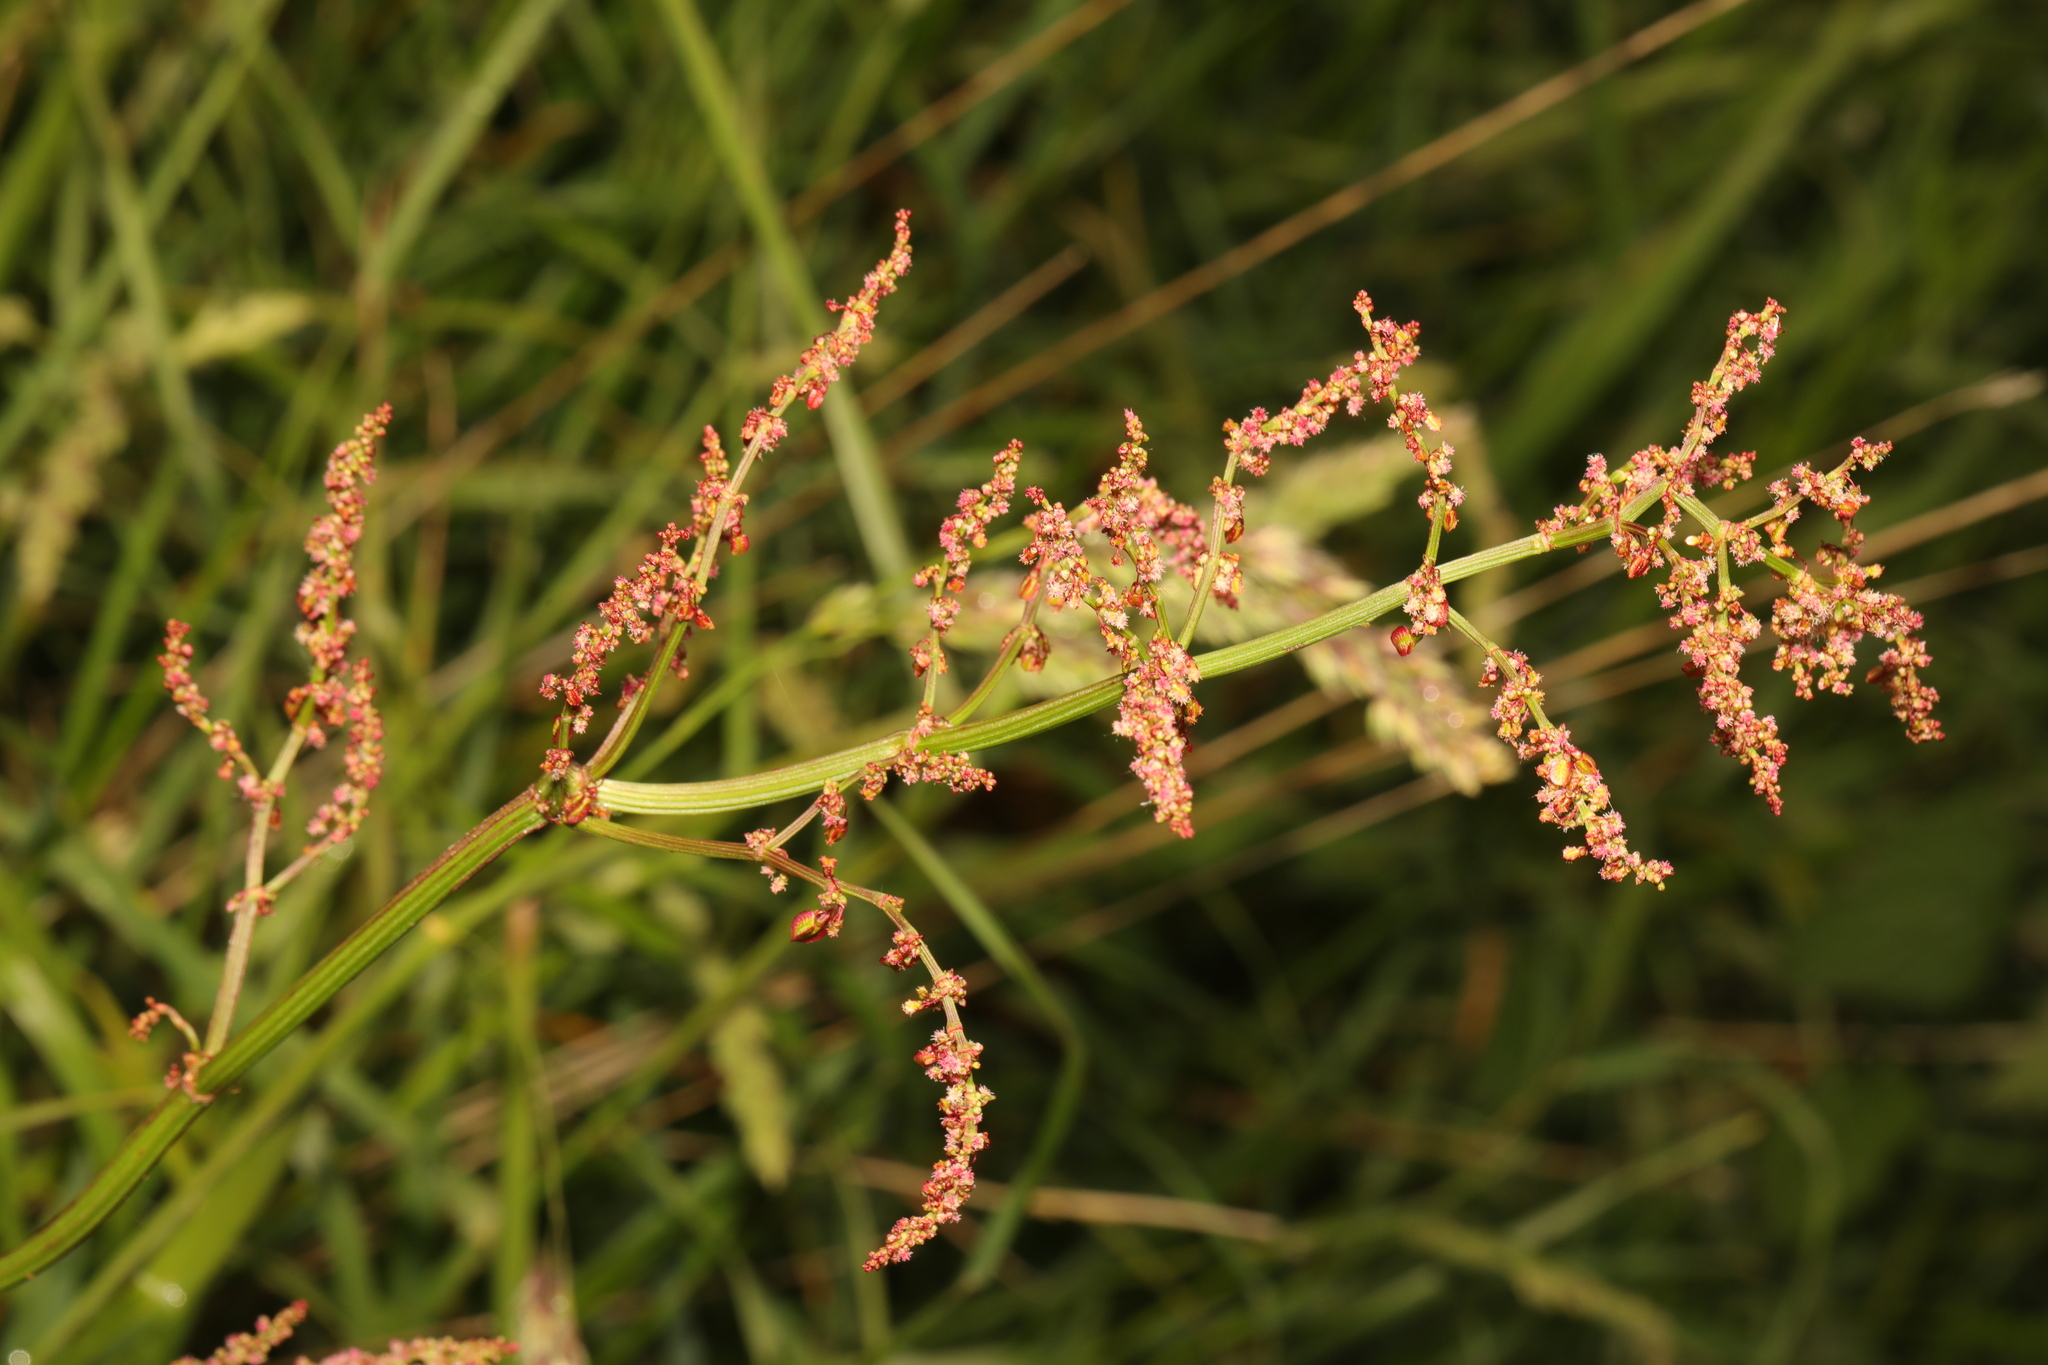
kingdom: Plantae
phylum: Tracheophyta
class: Magnoliopsida
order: Caryophyllales
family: Polygonaceae
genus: Rumex
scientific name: Rumex acetosella
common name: Common sheep sorrel
